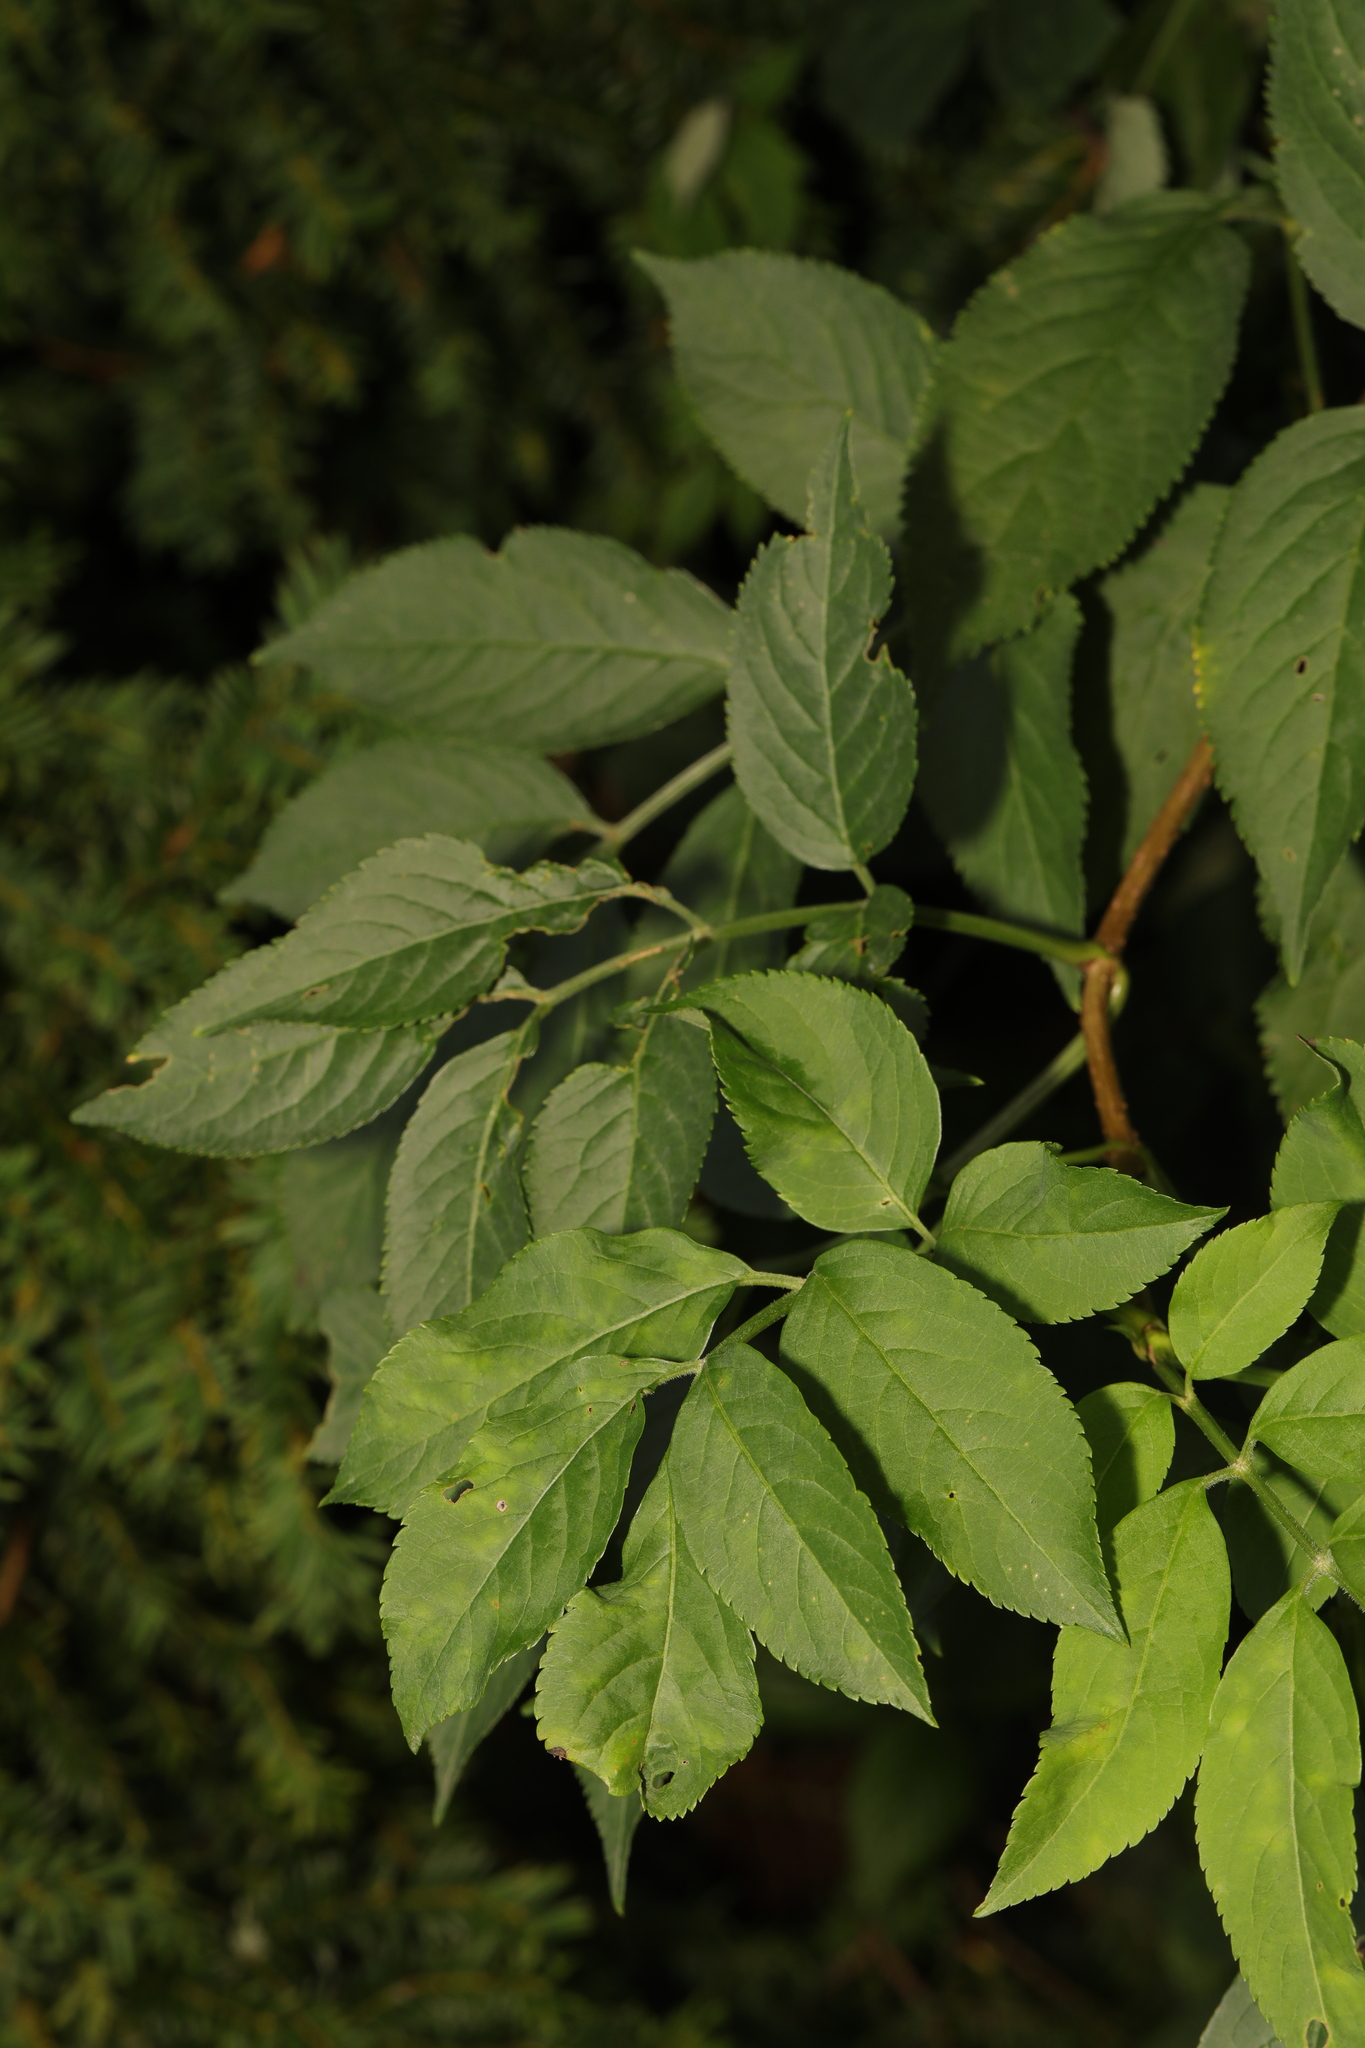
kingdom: Plantae
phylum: Tracheophyta
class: Magnoliopsida
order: Dipsacales
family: Viburnaceae
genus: Sambucus
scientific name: Sambucus nigra
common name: Elder
